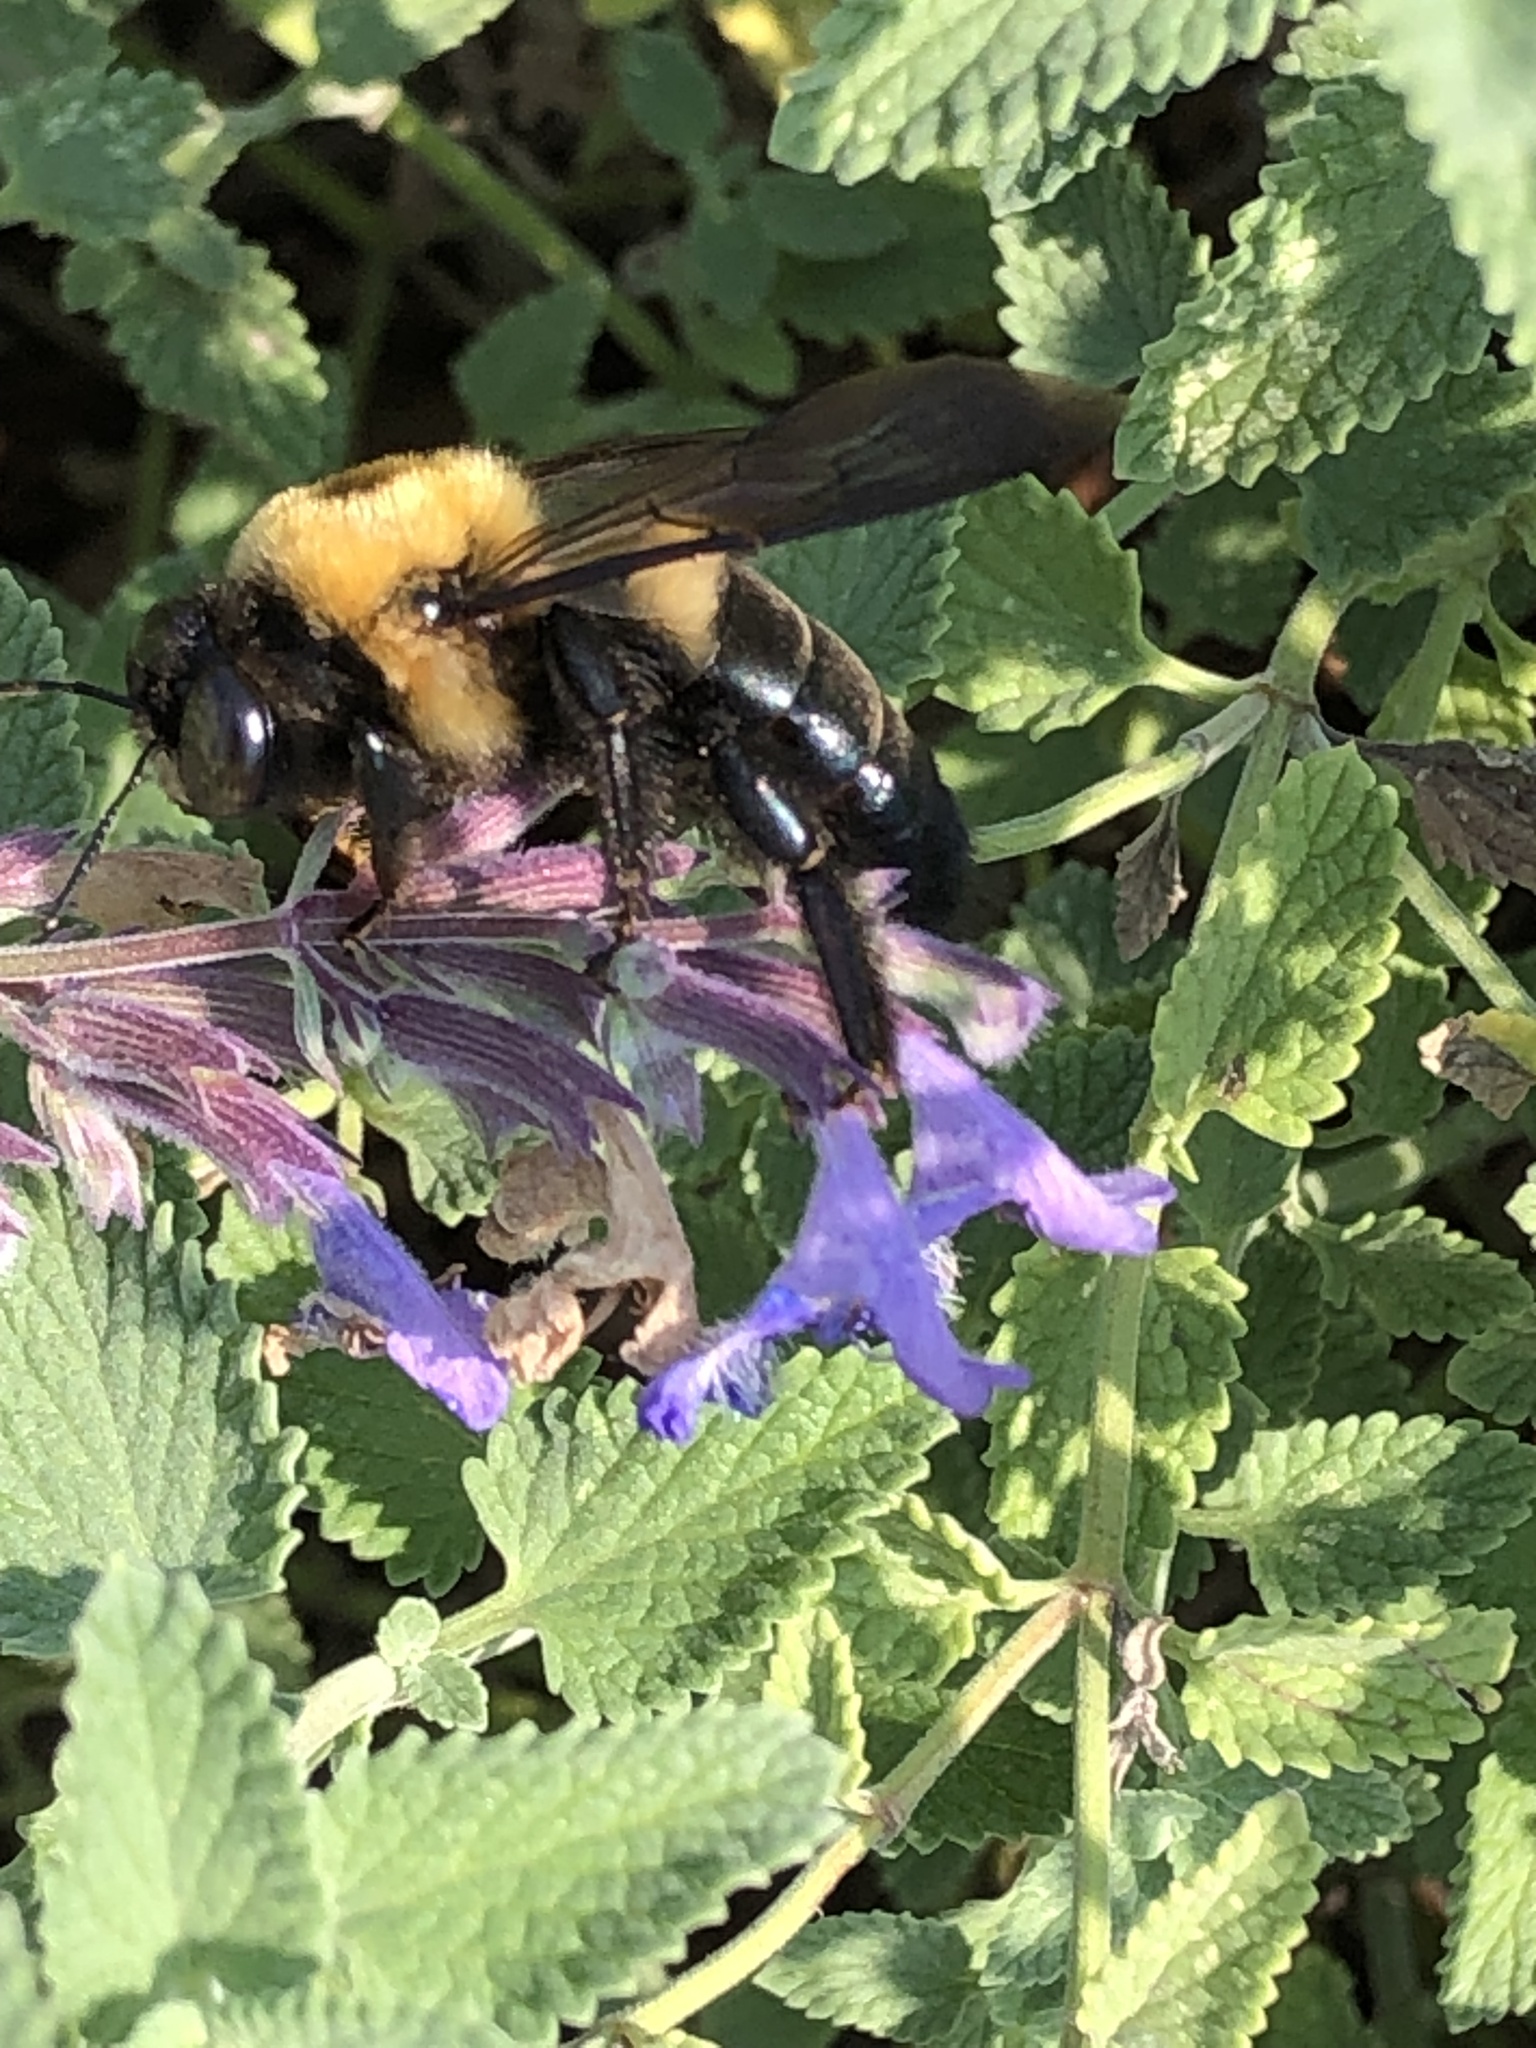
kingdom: Animalia
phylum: Arthropoda
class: Insecta
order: Hymenoptera
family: Apidae
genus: Xylocopa
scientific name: Xylocopa virginica
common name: Carpenter bee
